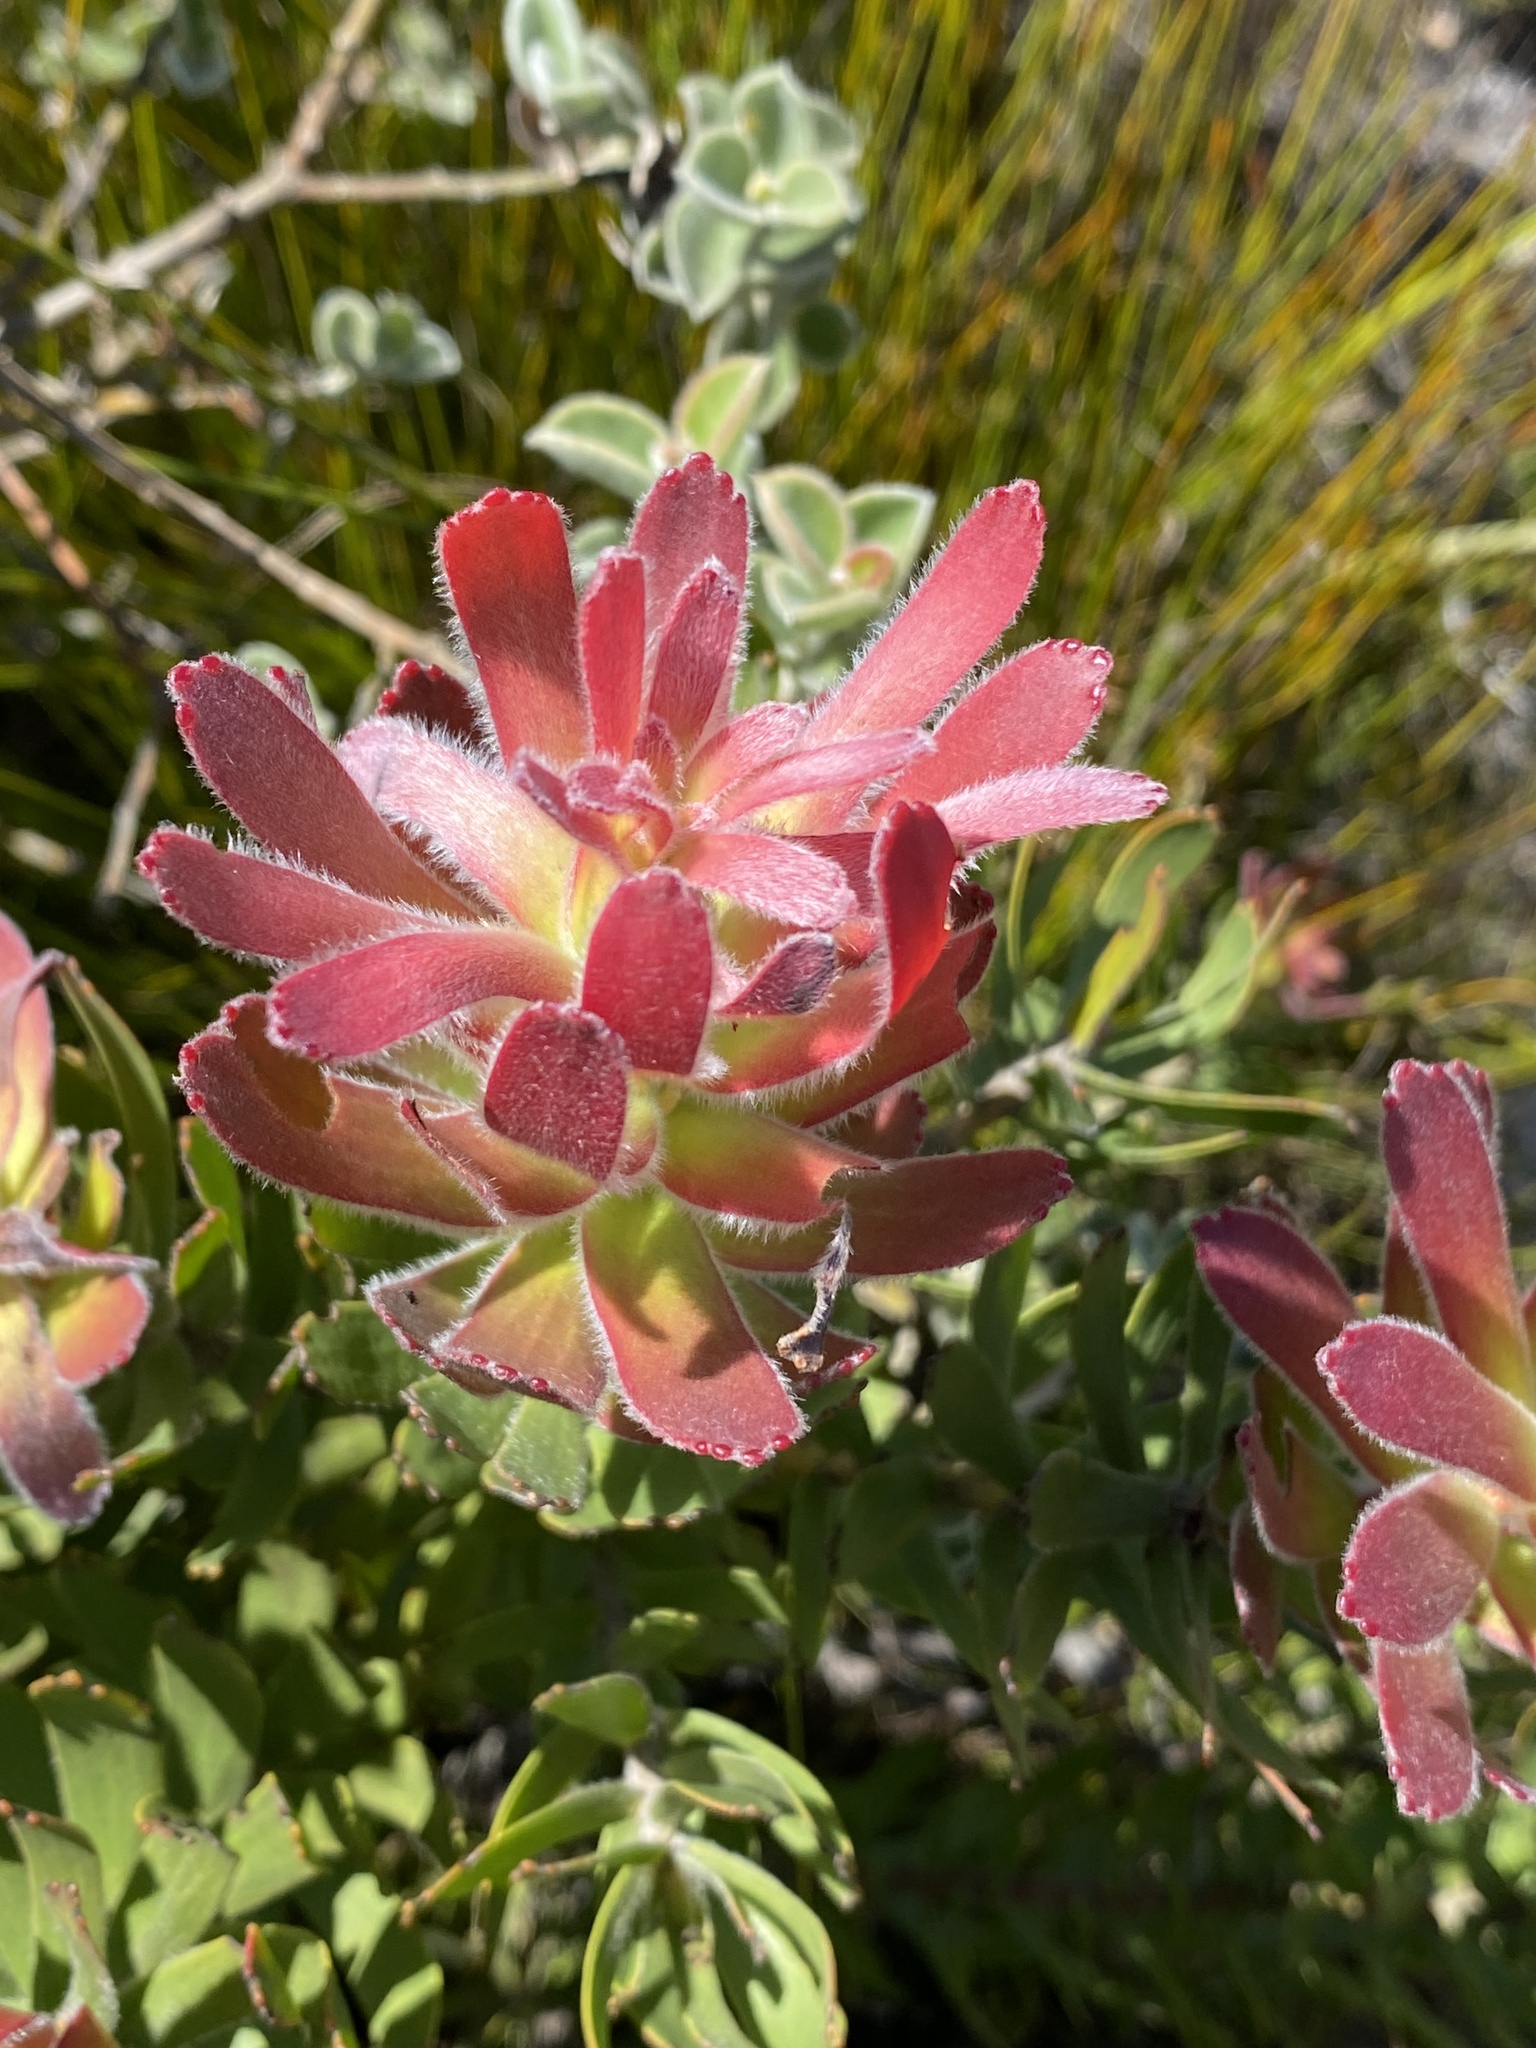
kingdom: Plantae
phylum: Tracheophyta
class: Magnoliopsida
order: Proteales
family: Proteaceae
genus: Mimetes
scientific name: Mimetes cucullatus
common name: Common pagoda
